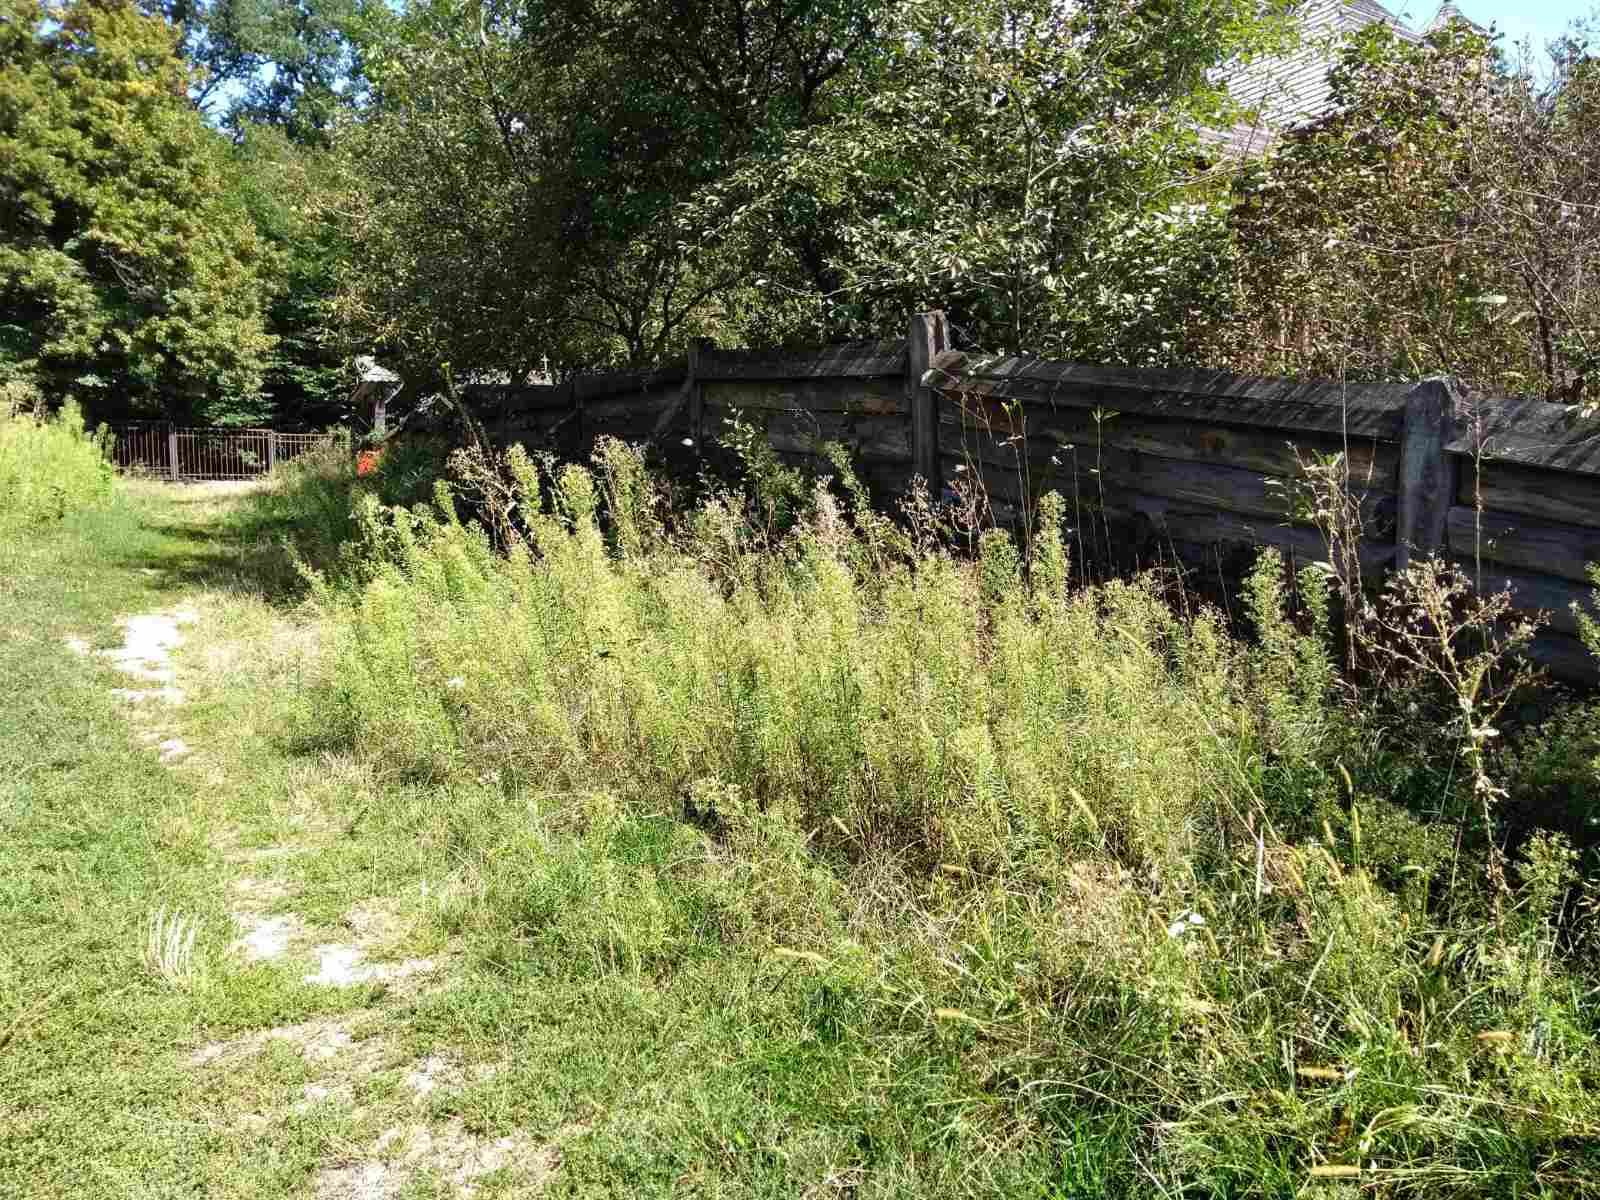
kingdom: Plantae
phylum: Tracheophyta
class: Magnoliopsida
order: Asterales
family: Asteraceae
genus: Erigeron
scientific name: Erigeron canadensis
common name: Canadian fleabane
